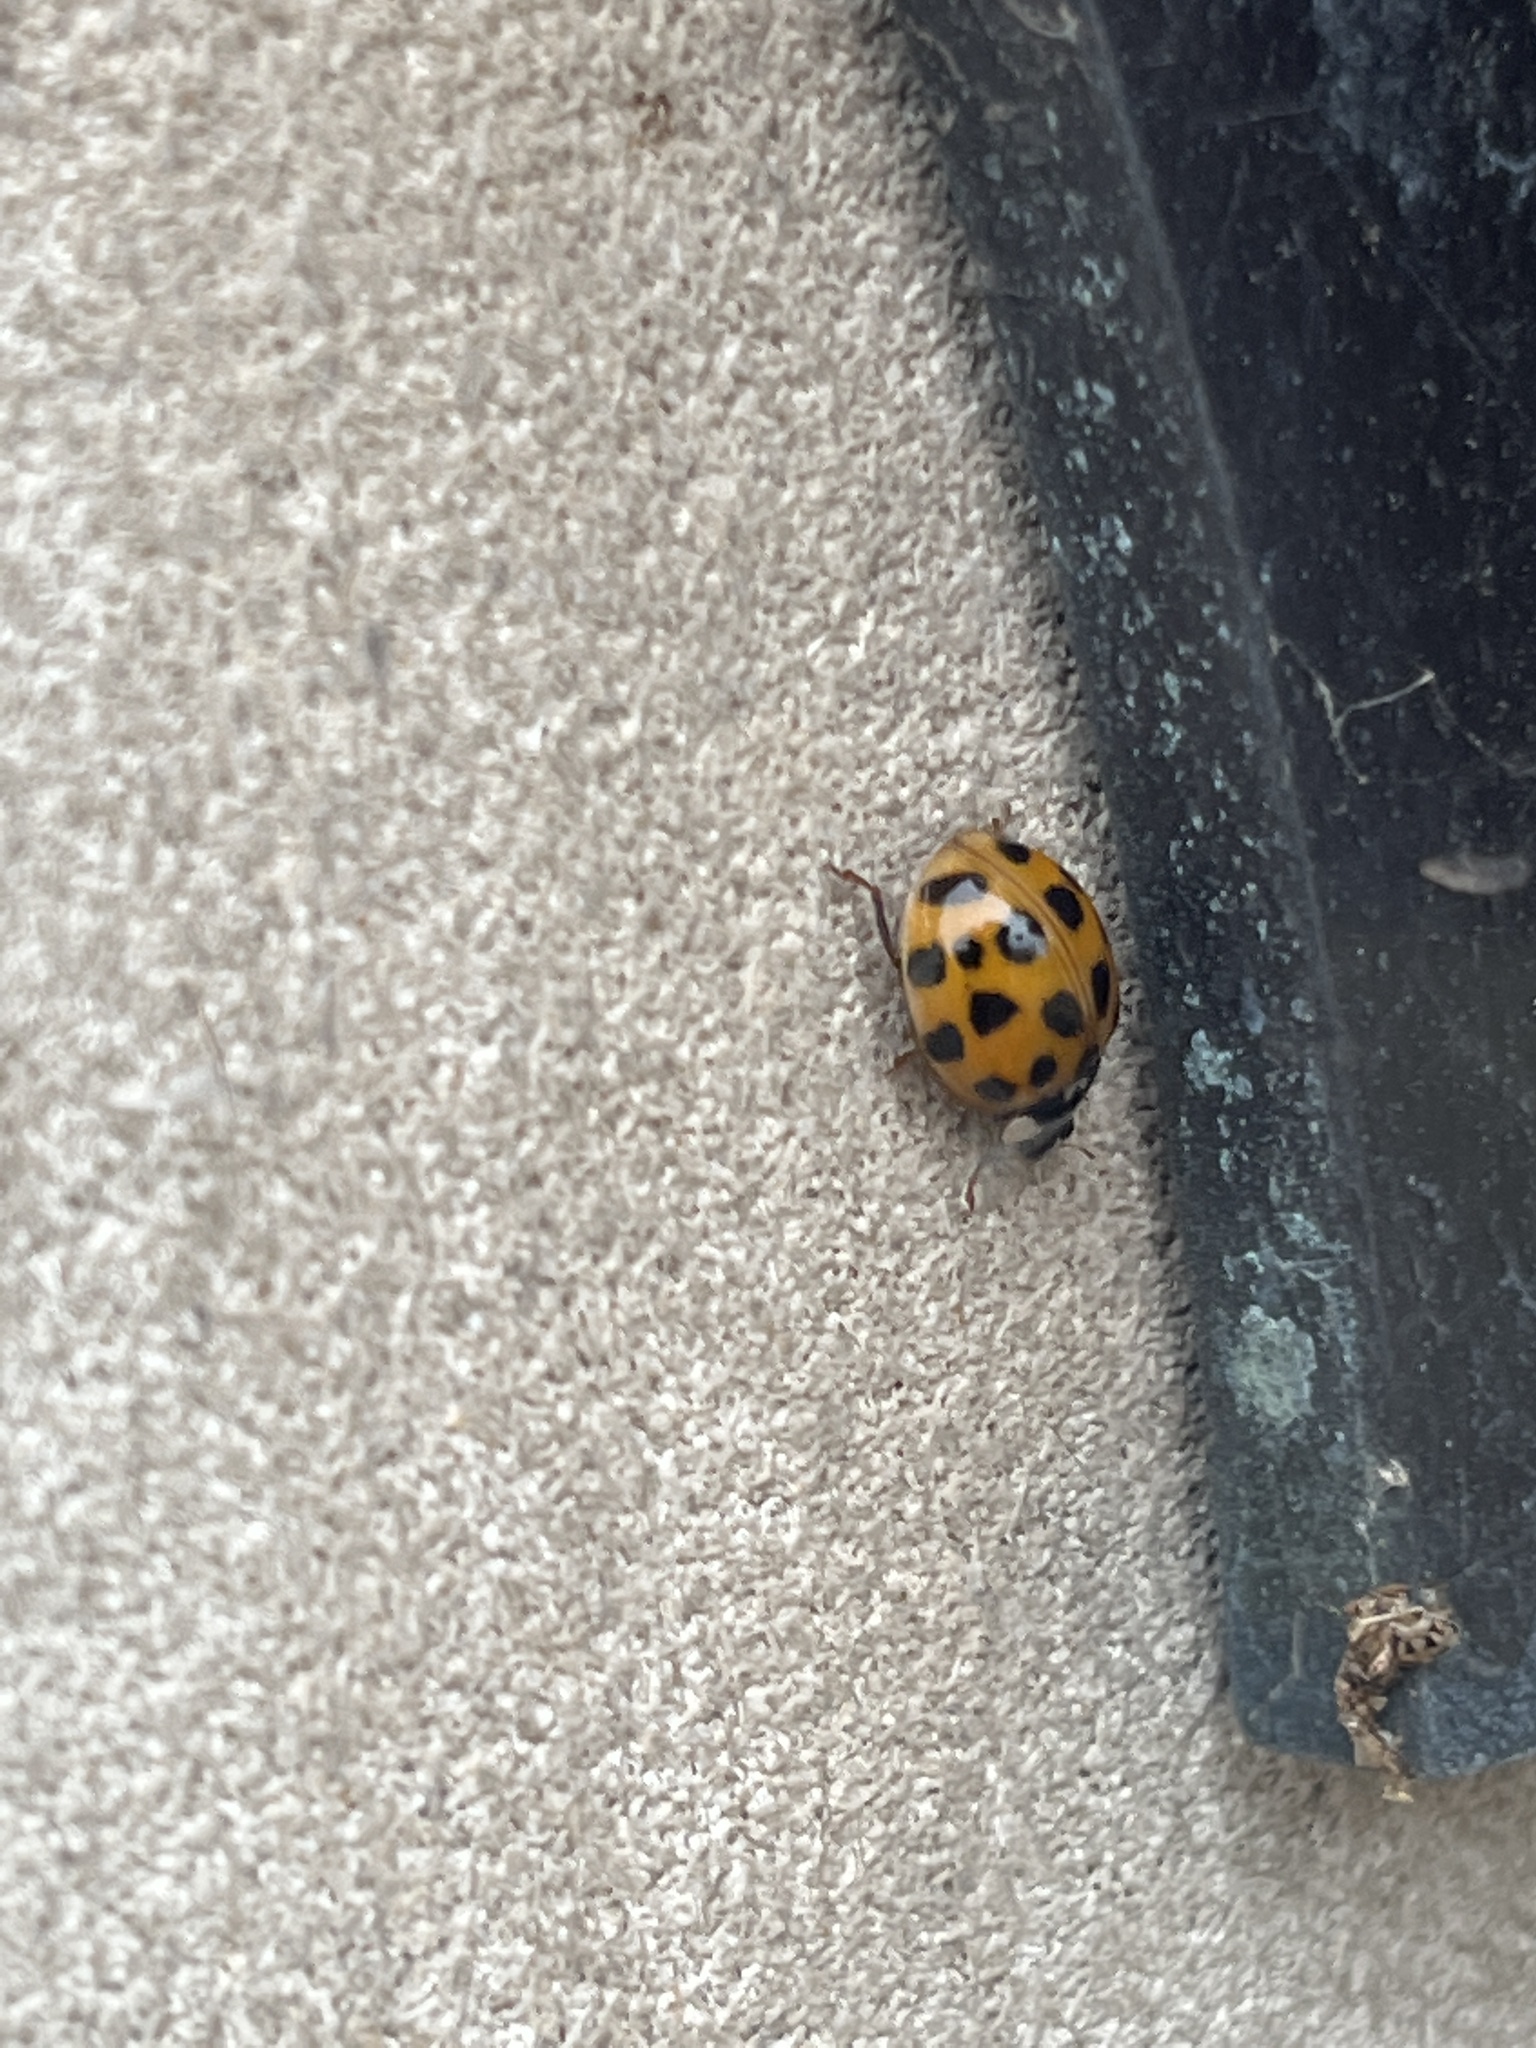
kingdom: Animalia
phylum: Arthropoda
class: Insecta
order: Coleoptera
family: Coccinellidae
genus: Harmonia
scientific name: Harmonia axyridis
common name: Harlequin ladybird
